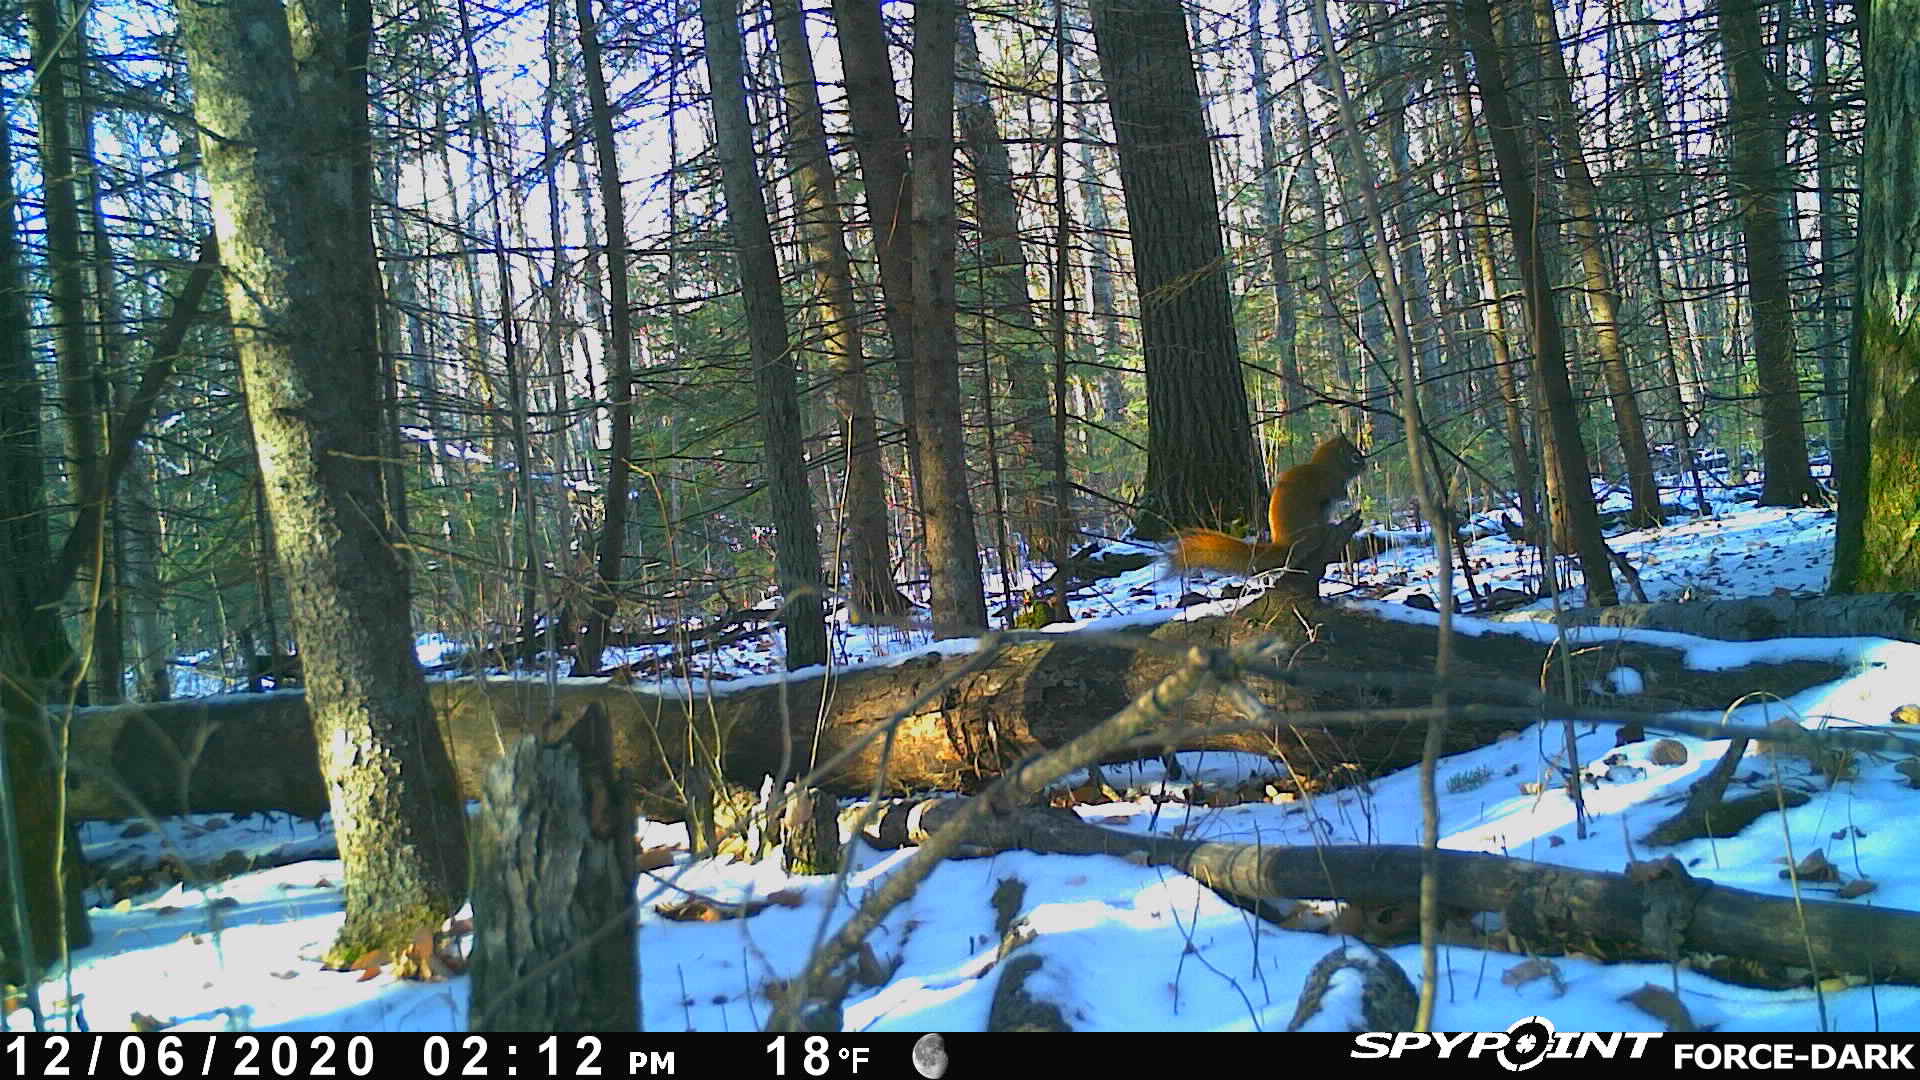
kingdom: Animalia
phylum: Chordata
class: Mammalia
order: Rodentia
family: Sciuridae
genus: Tamiasciurus
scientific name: Tamiasciurus hudsonicus
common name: Red squirrel
